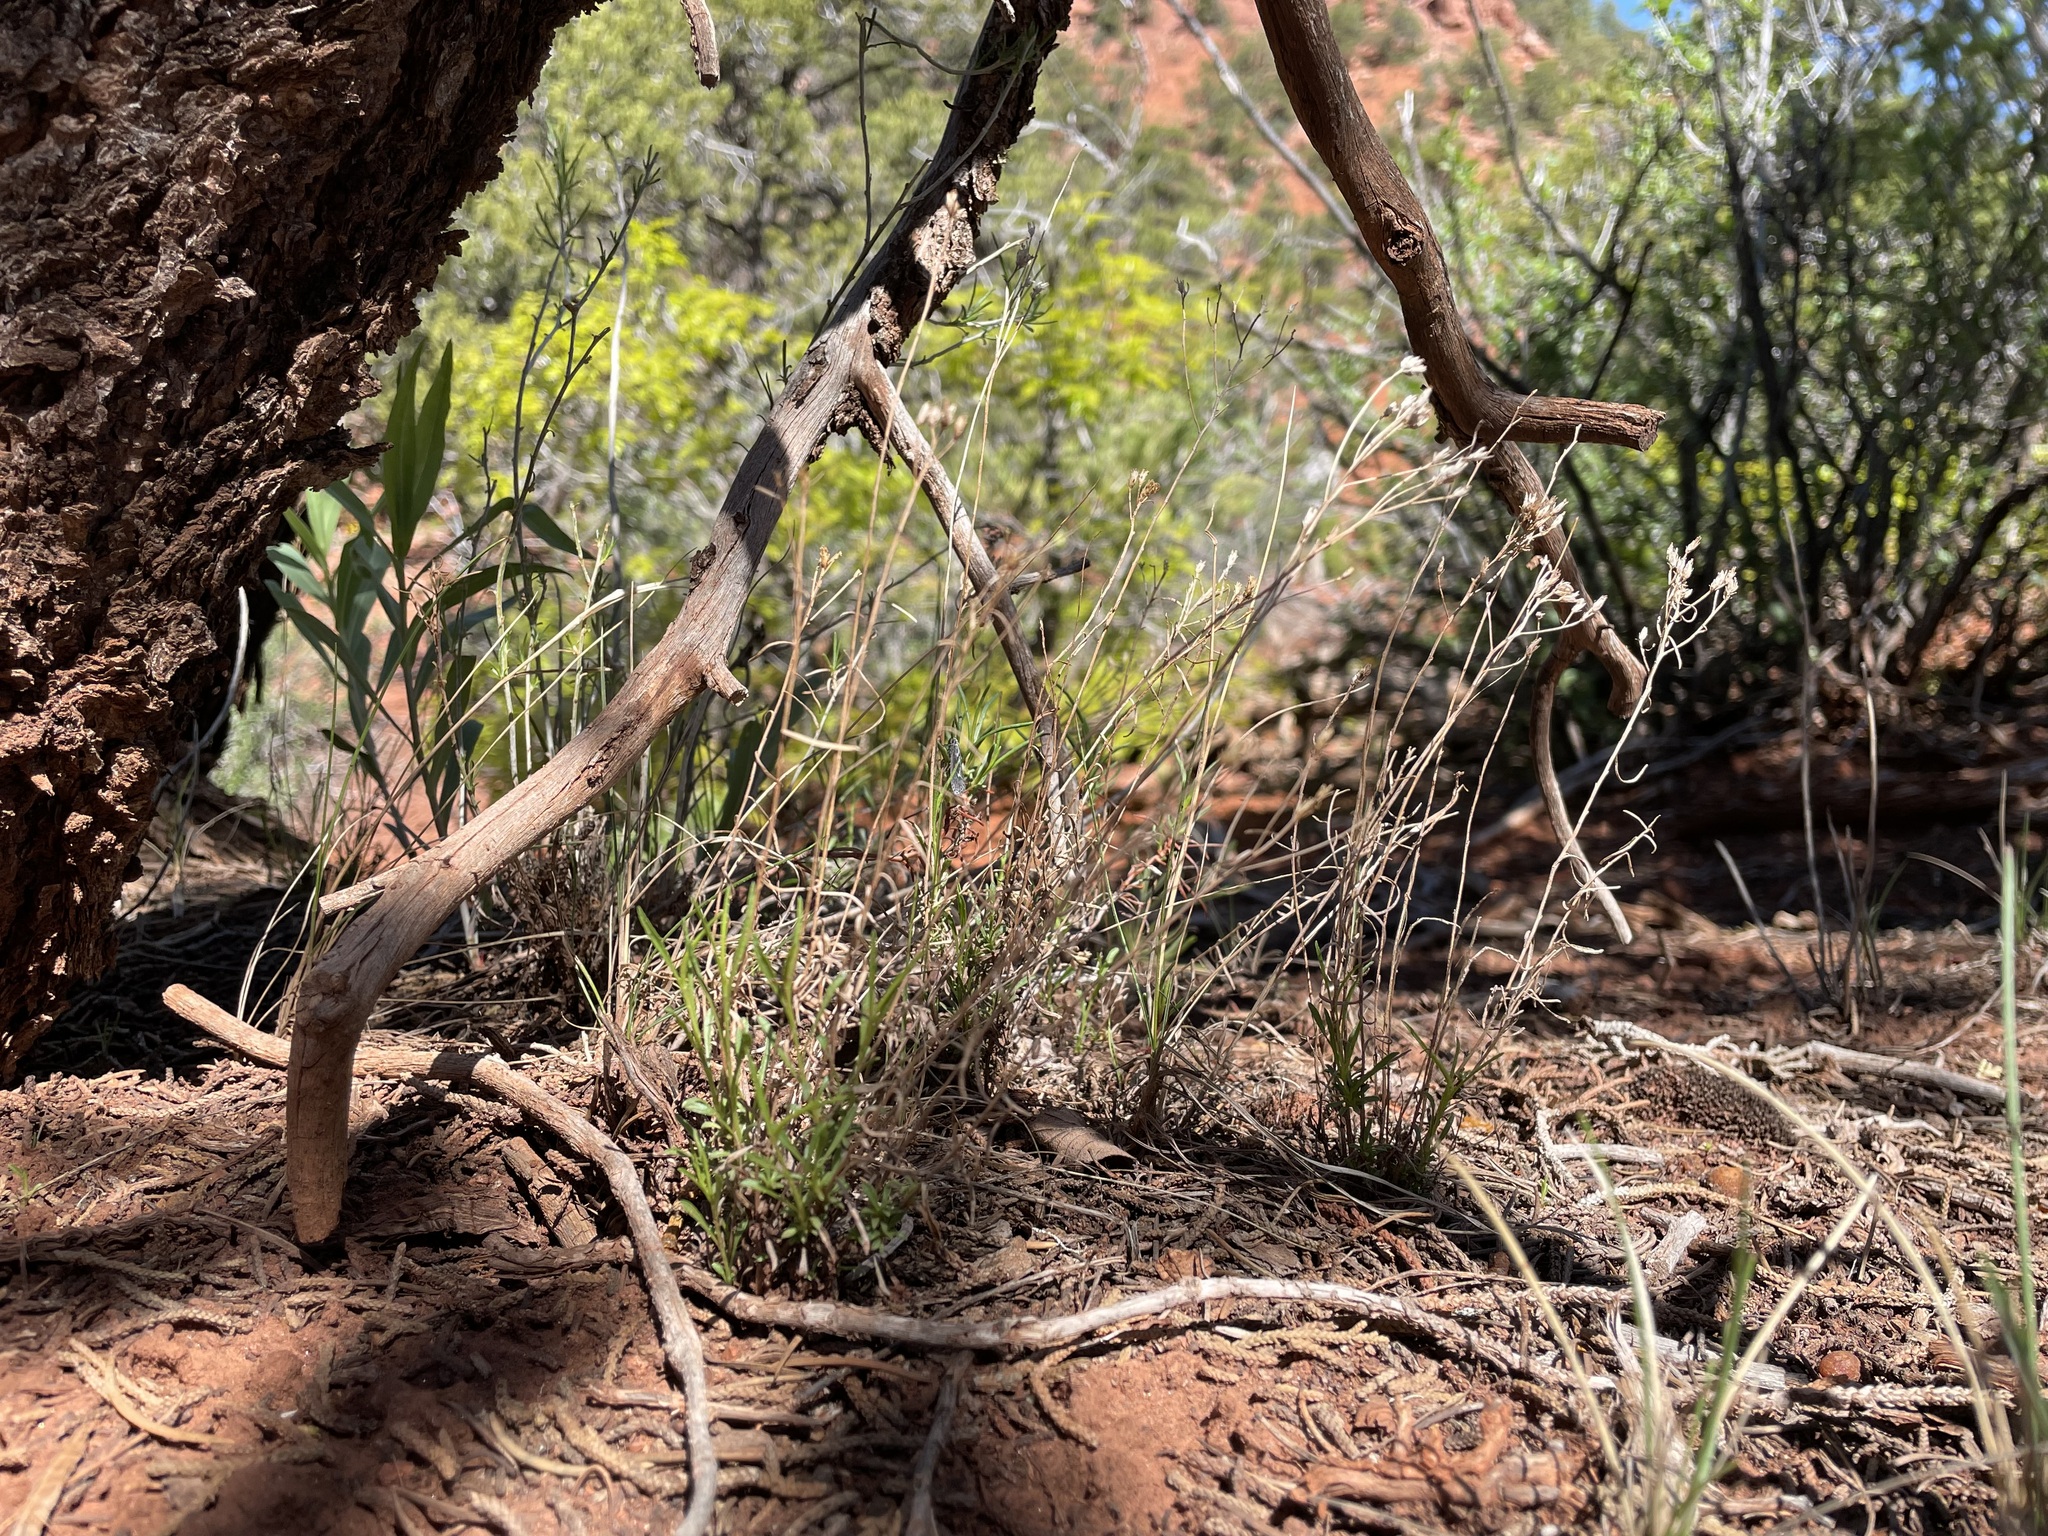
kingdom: Plantae
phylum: Tracheophyta
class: Magnoliopsida
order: Asterales
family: Asteraceae
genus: Gutierrezia
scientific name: Gutierrezia sarothrae
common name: Broom snakeweed
